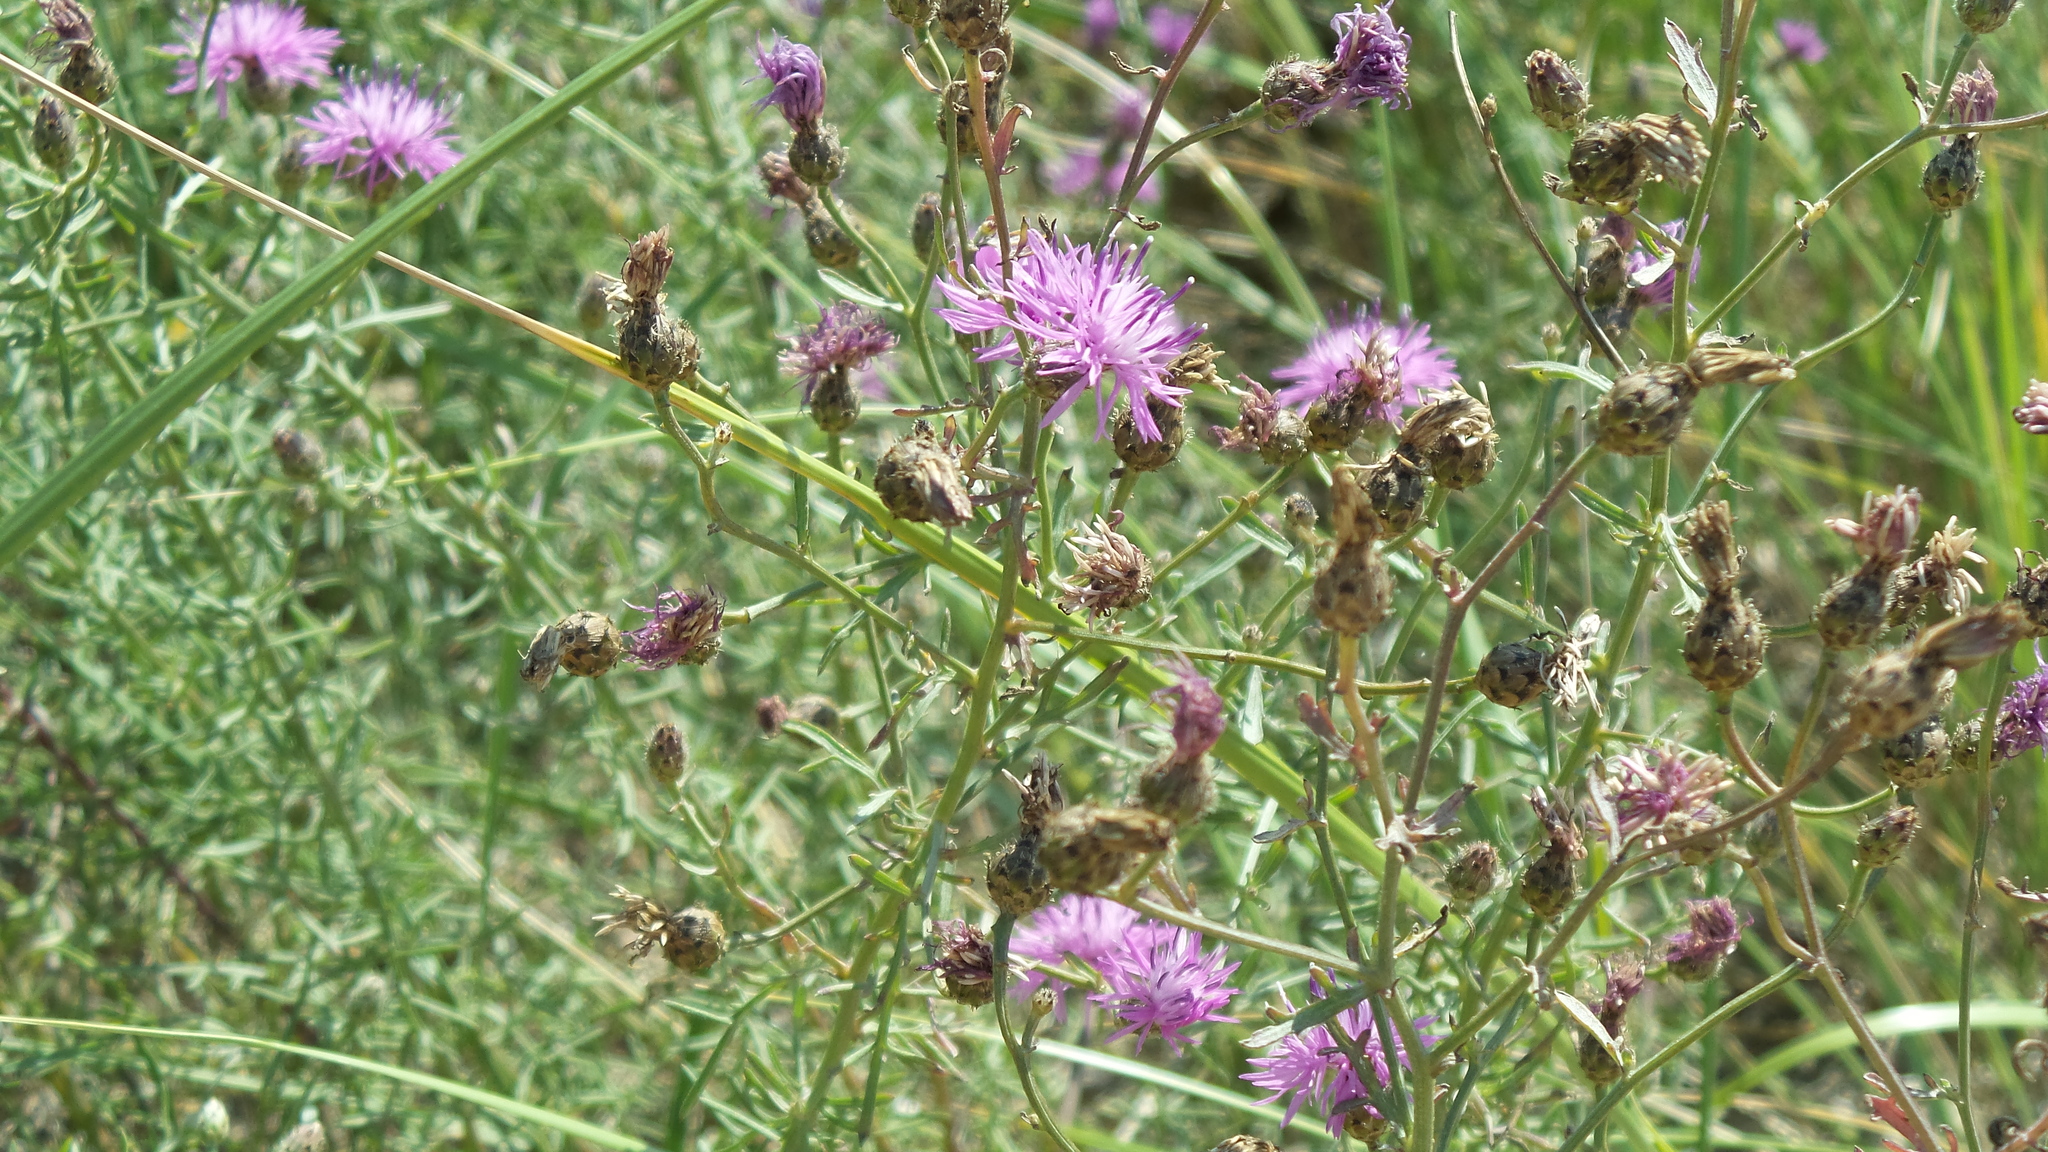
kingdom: Plantae
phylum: Tracheophyta
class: Magnoliopsida
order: Asterales
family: Asteraceae
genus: Cirsium
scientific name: Cirsium arvense
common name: Creeping thistle
